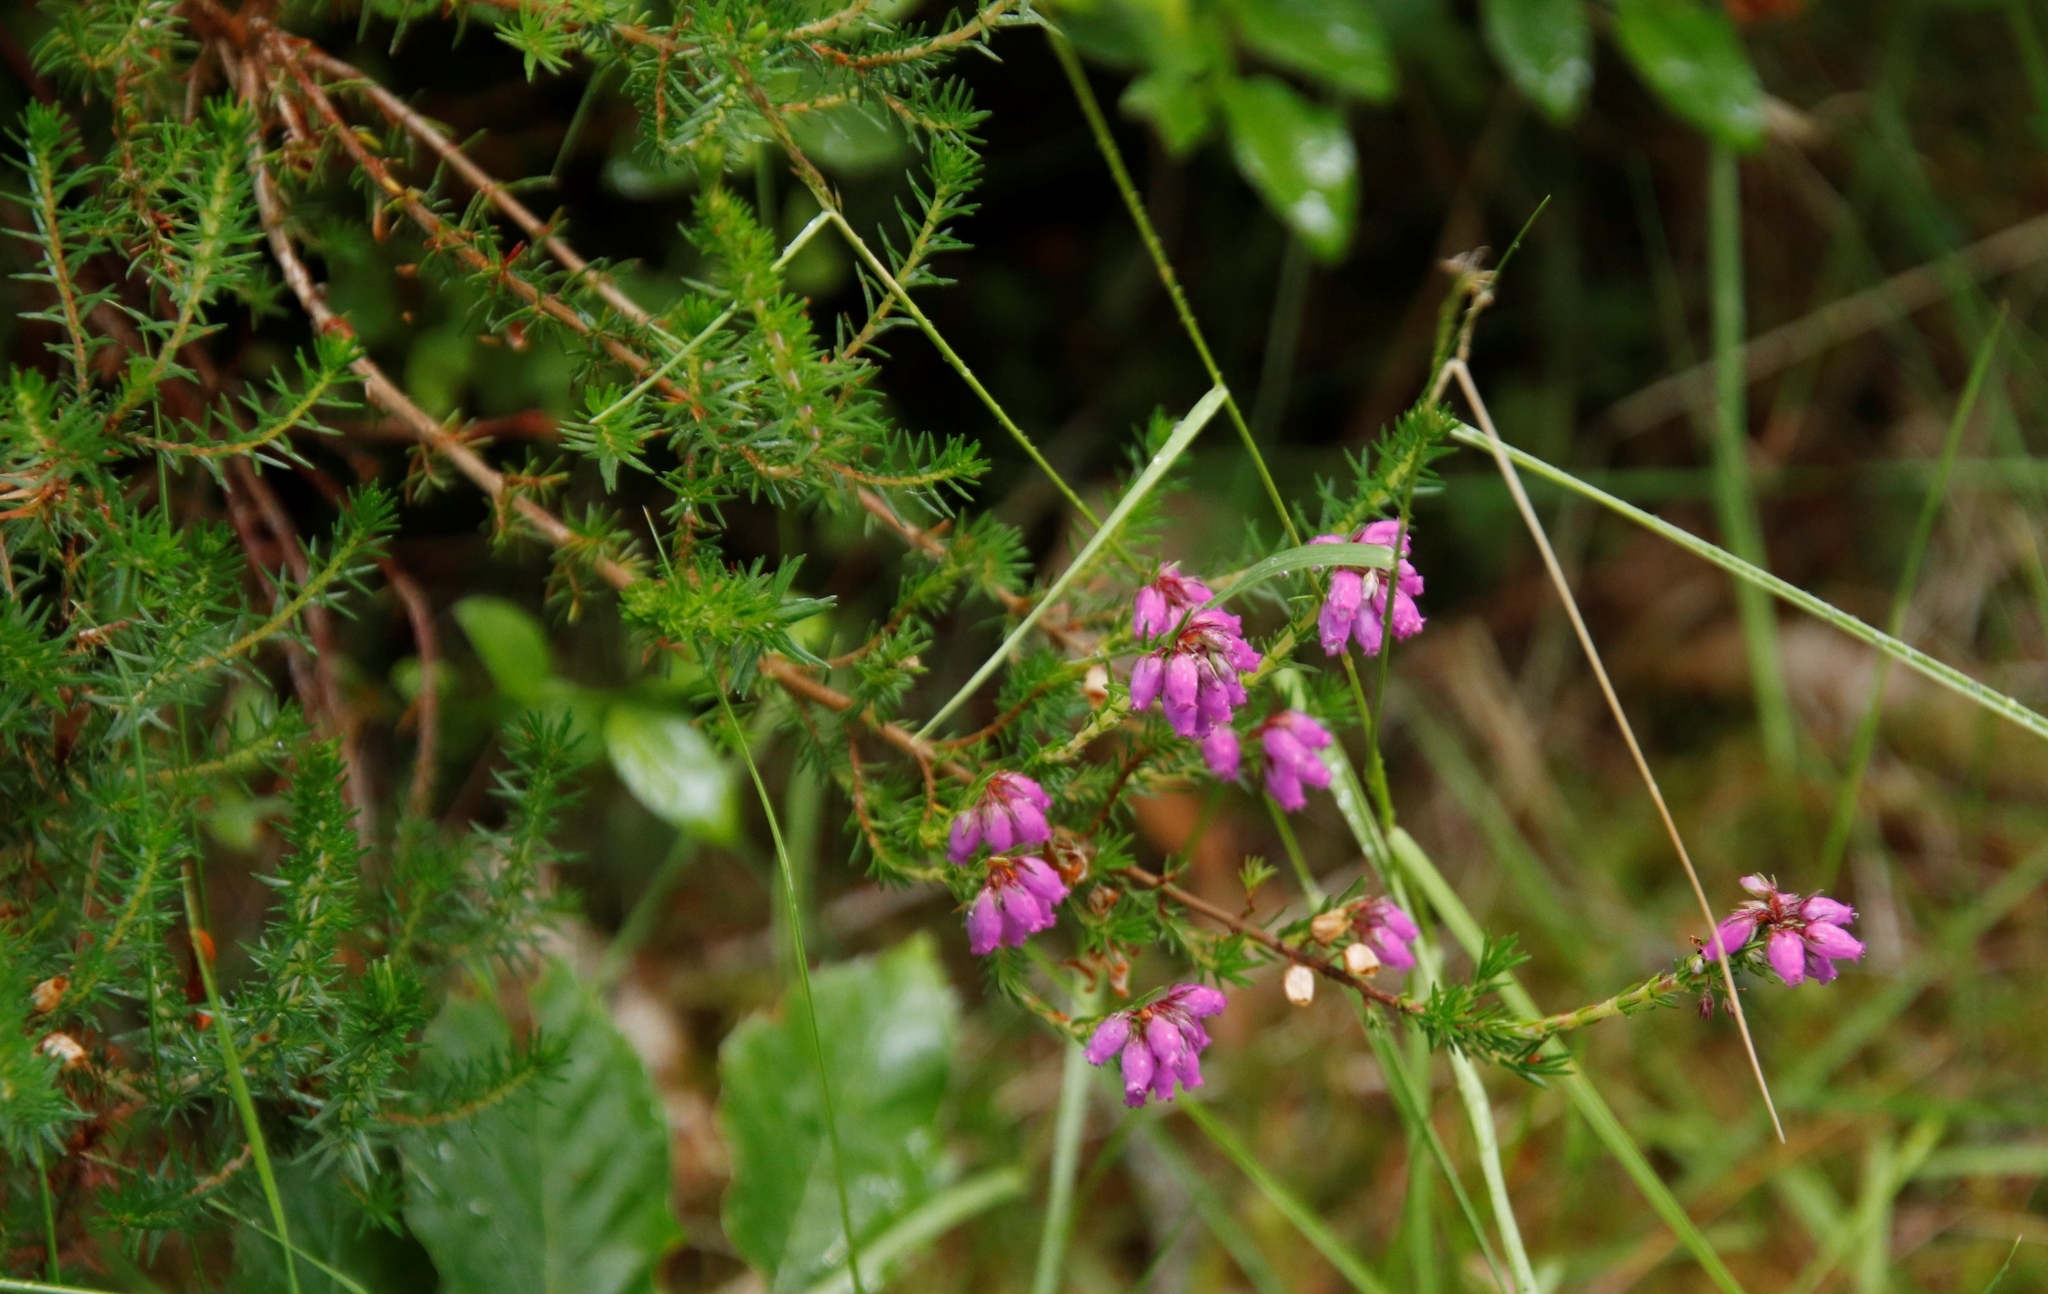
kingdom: Plantae
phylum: Tracheophyta
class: Magnoliopsida
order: Ericales
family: Ericaceae
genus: Erica
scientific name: Erica cinerea
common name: Bell heather
